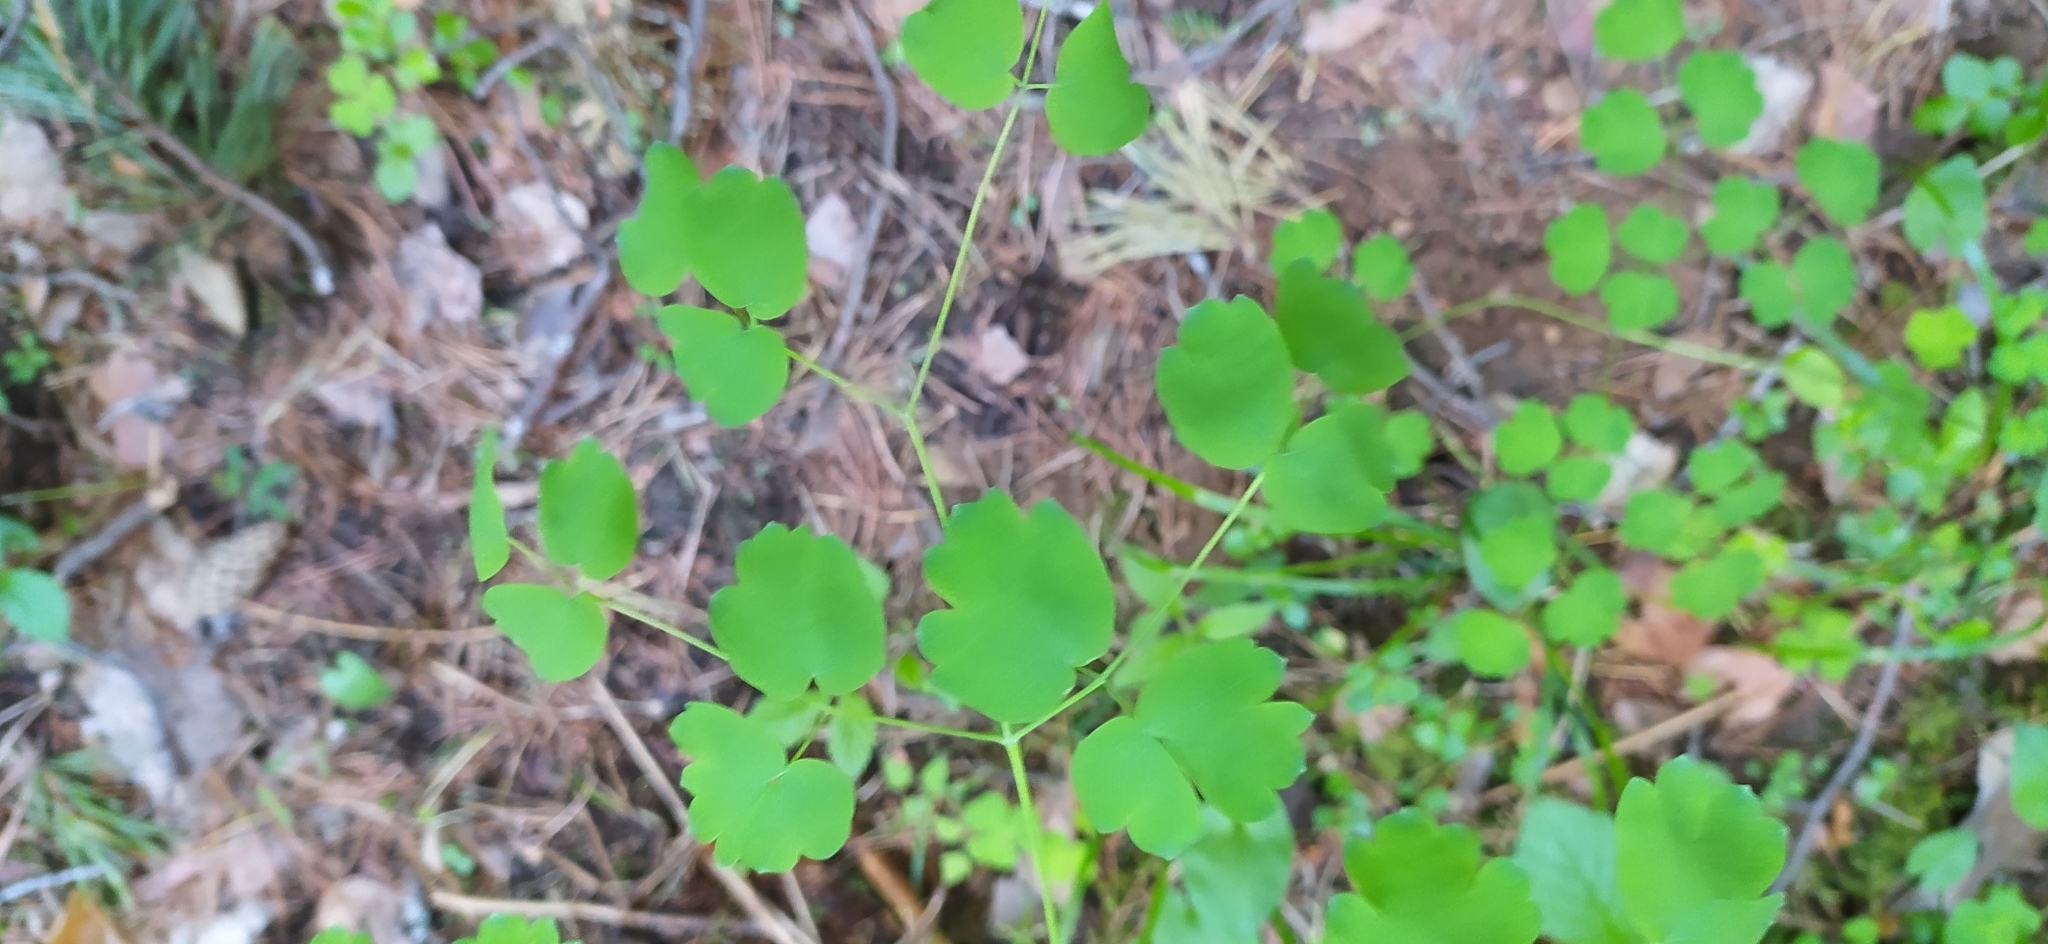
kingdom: Plantae
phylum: Tracheophyta
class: Magnoliopsida
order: Ranunculales
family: Ranunculaceae
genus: Thalictrum
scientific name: Thalictrum minus
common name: Lesser meadow-rue
